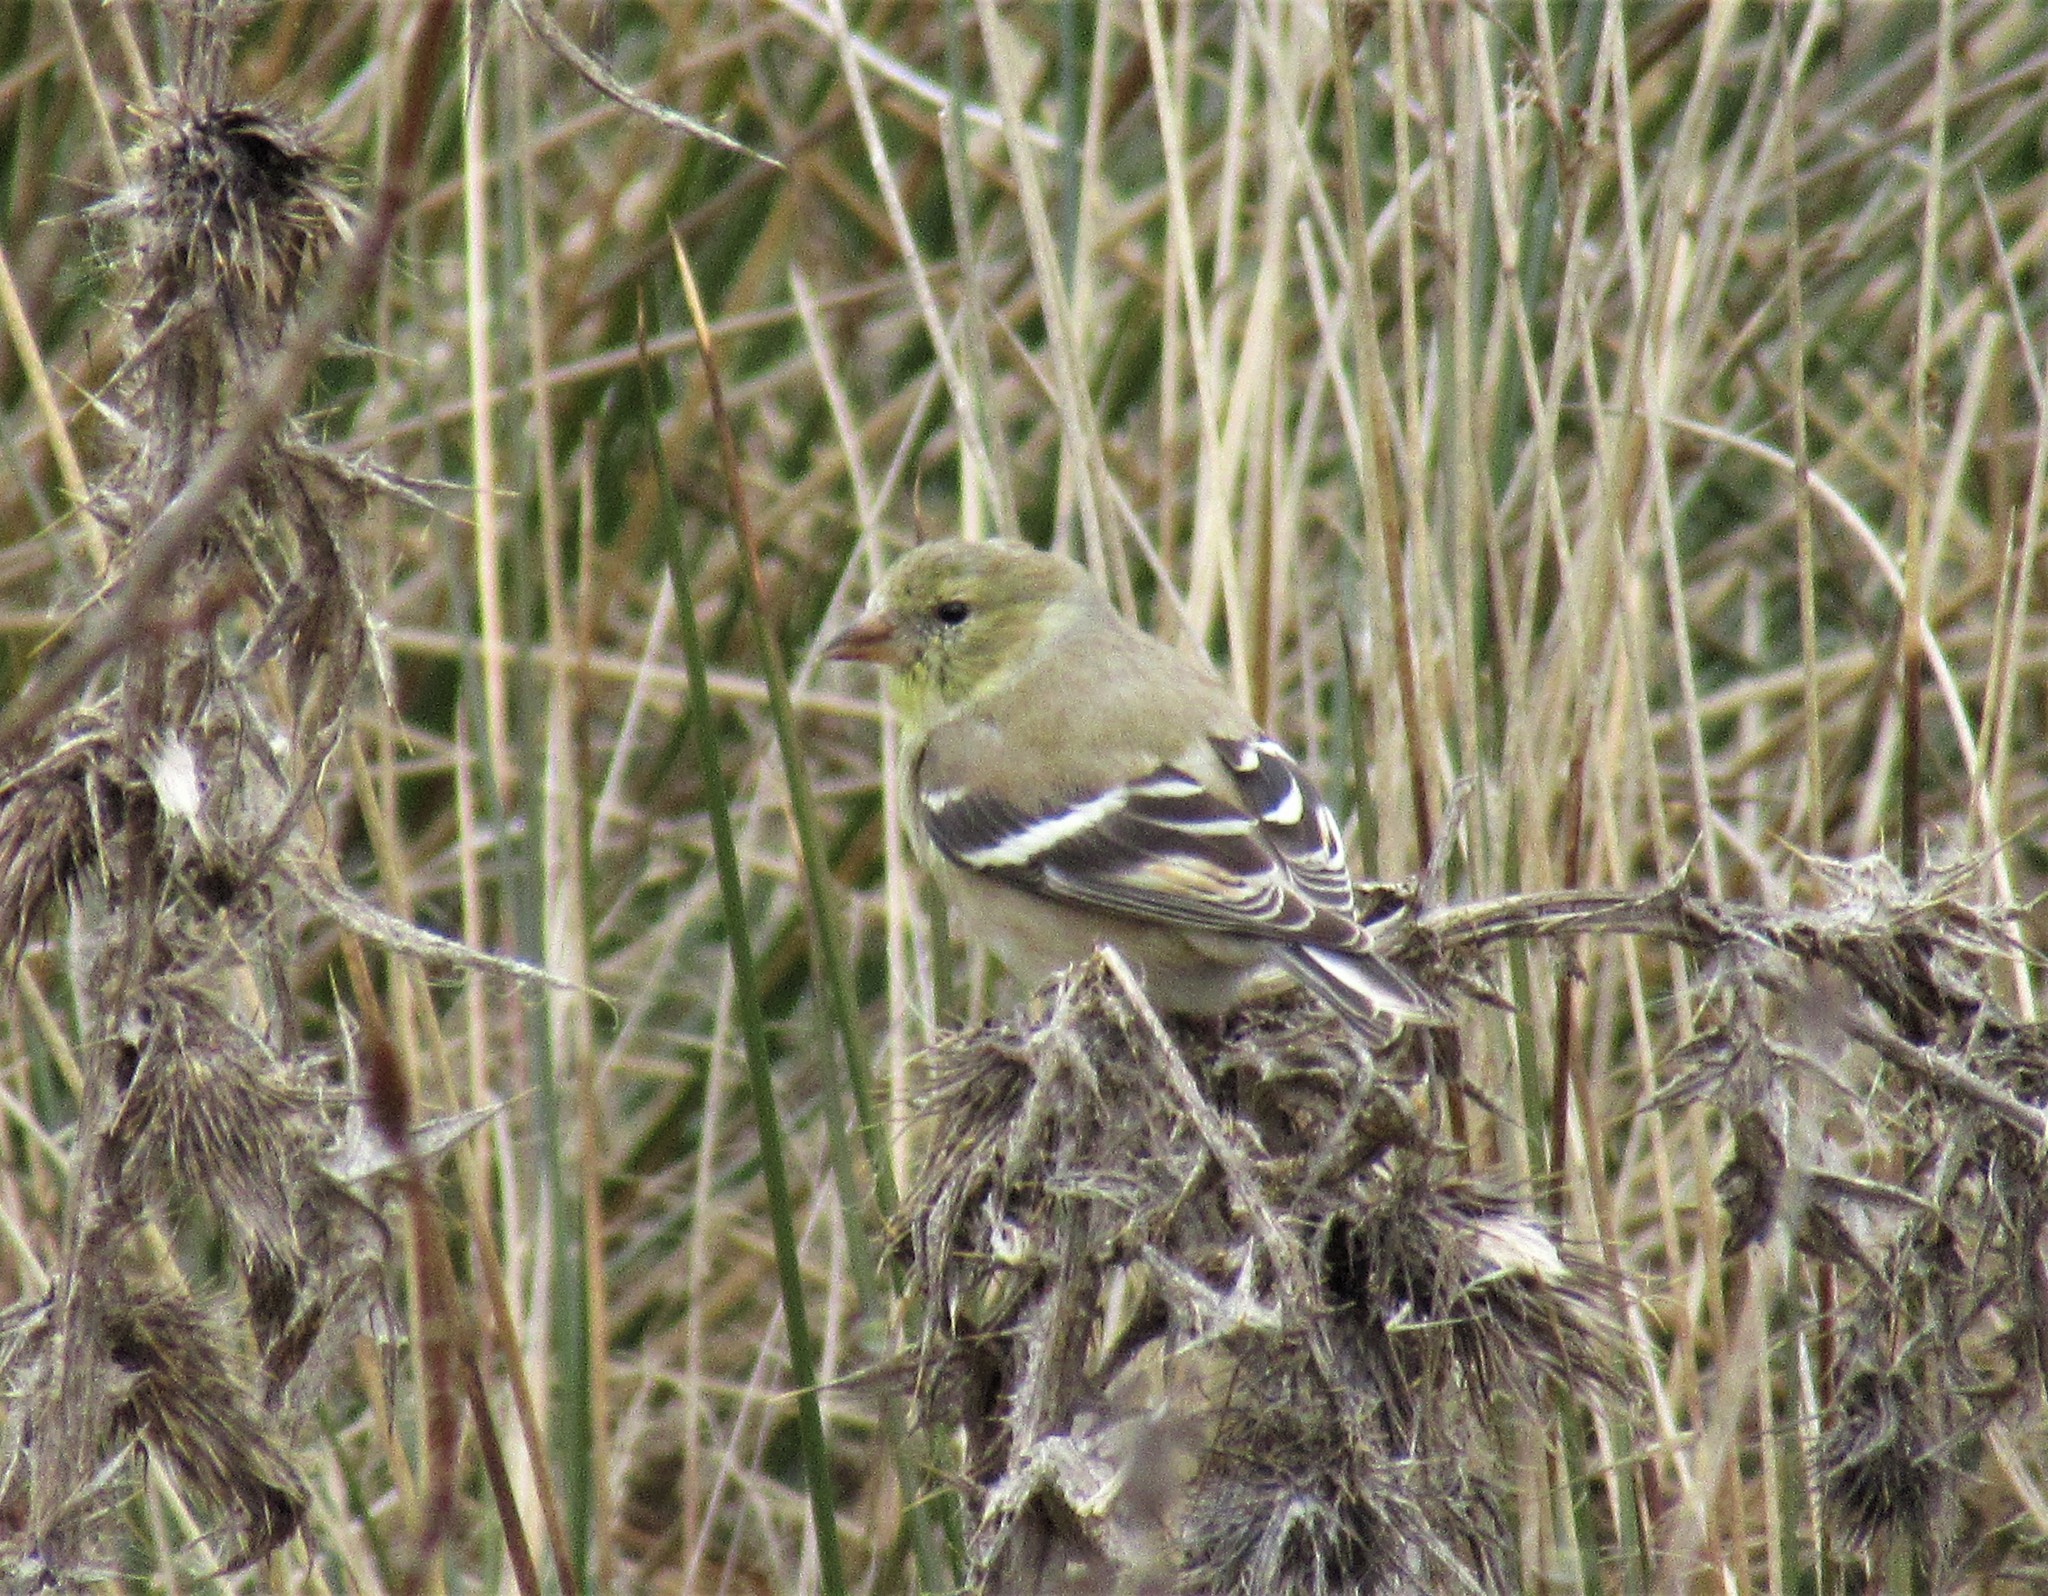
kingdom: Animalia
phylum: Chordata
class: Aves
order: Passeriformes
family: Fringillidae
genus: Spinus
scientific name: Spinus tristis
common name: American goldfinch
